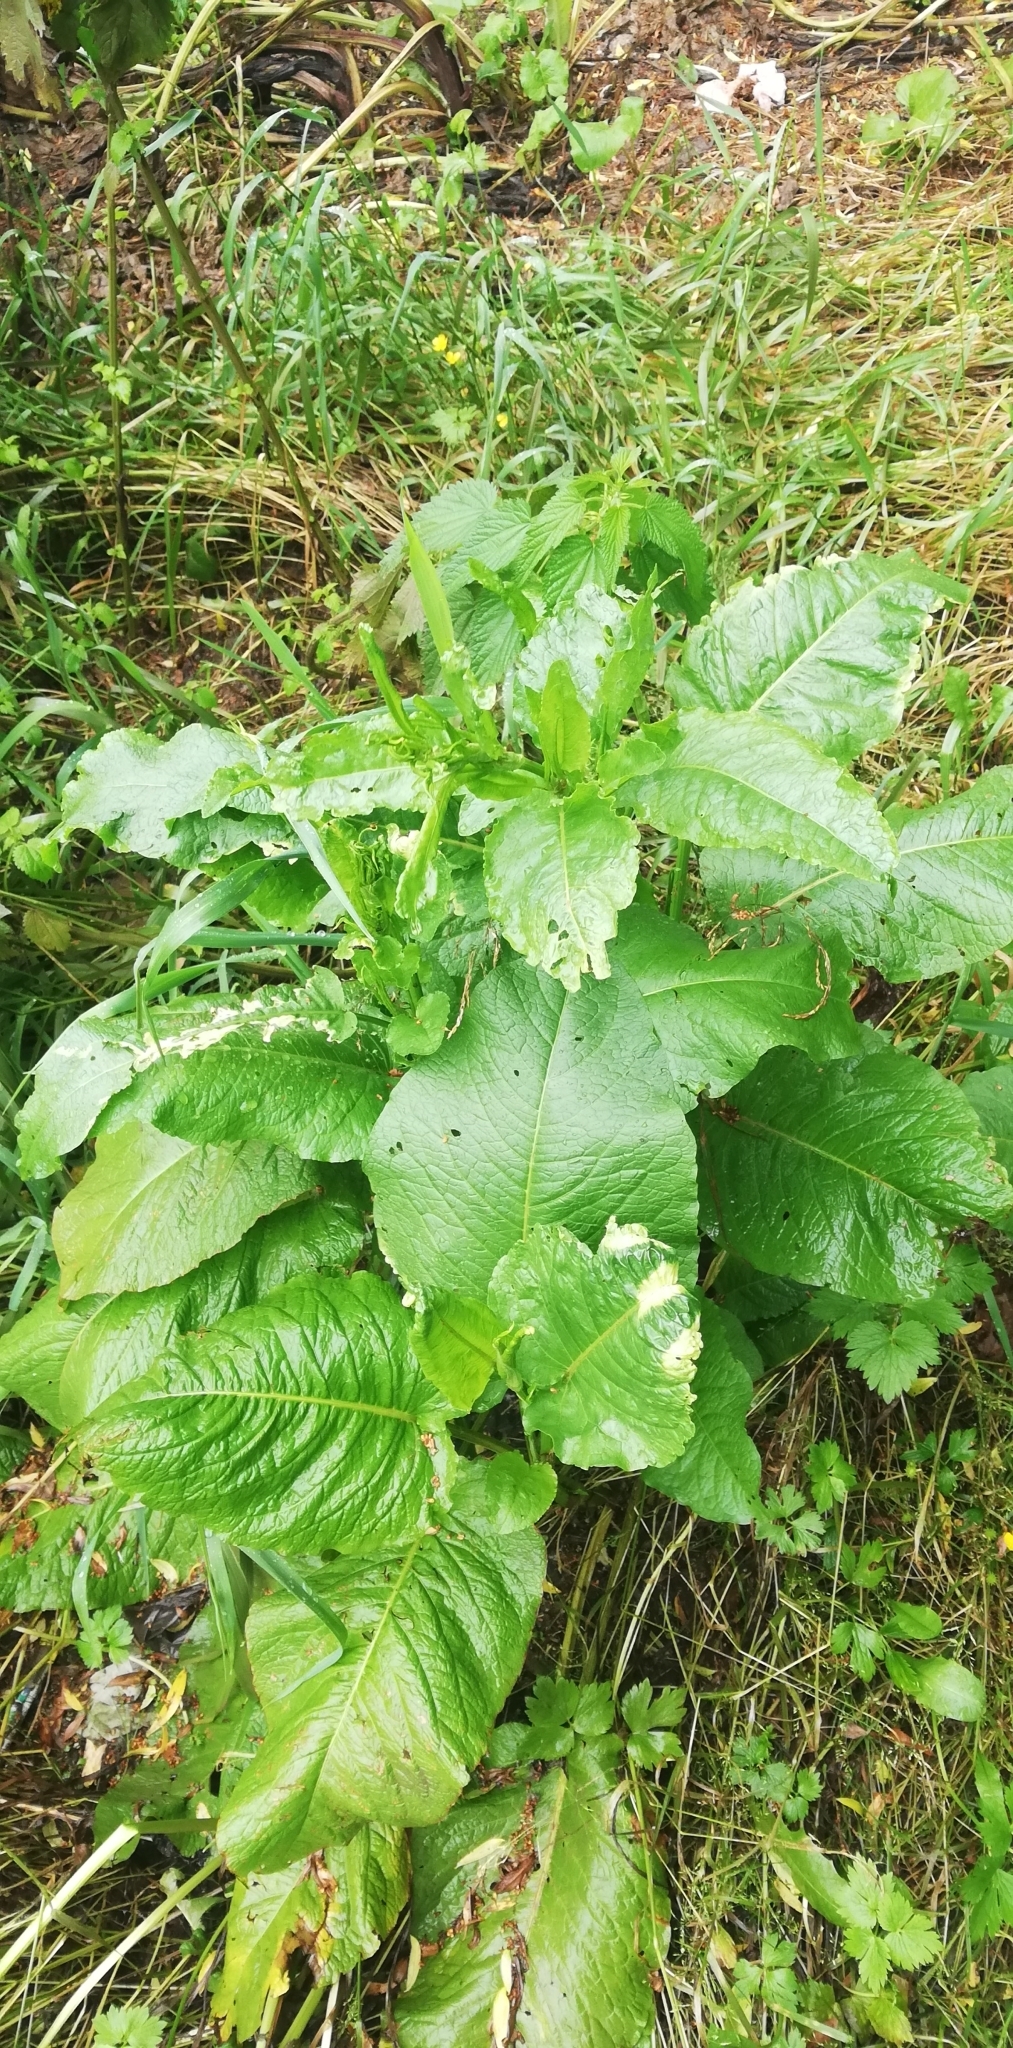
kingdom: Plantae
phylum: Tracheophyta
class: Magnoliopsida
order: Caryophyllales
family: Polygonaceae
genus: Rumex
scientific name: Rumex obtusifolius
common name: Bitter dock
